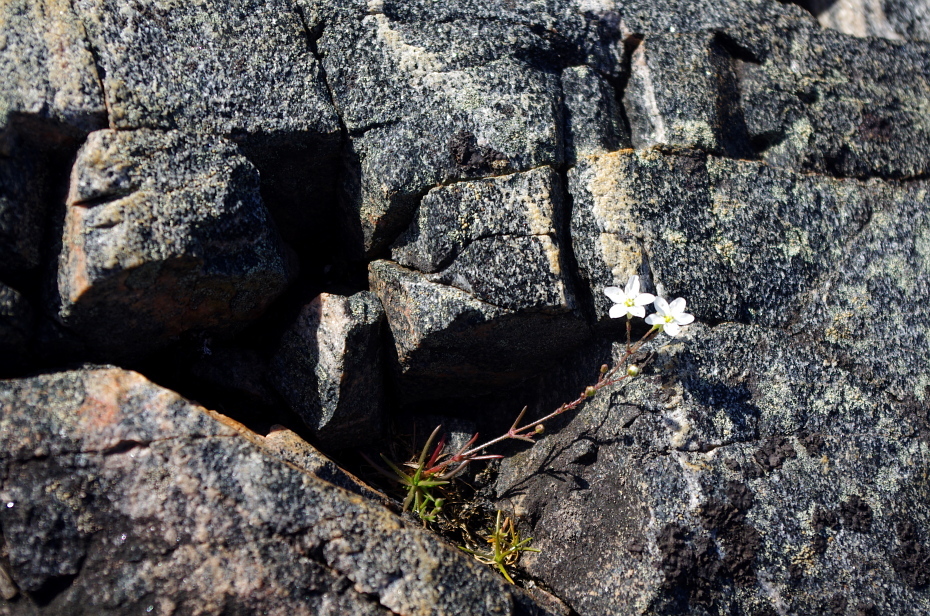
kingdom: Plantae
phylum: Tracheophyta
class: Magnoliopsida
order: Caryophyllales
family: Caryophyllaceae
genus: Sagina
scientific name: Sagina nodosa
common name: Knotted pearlwort
